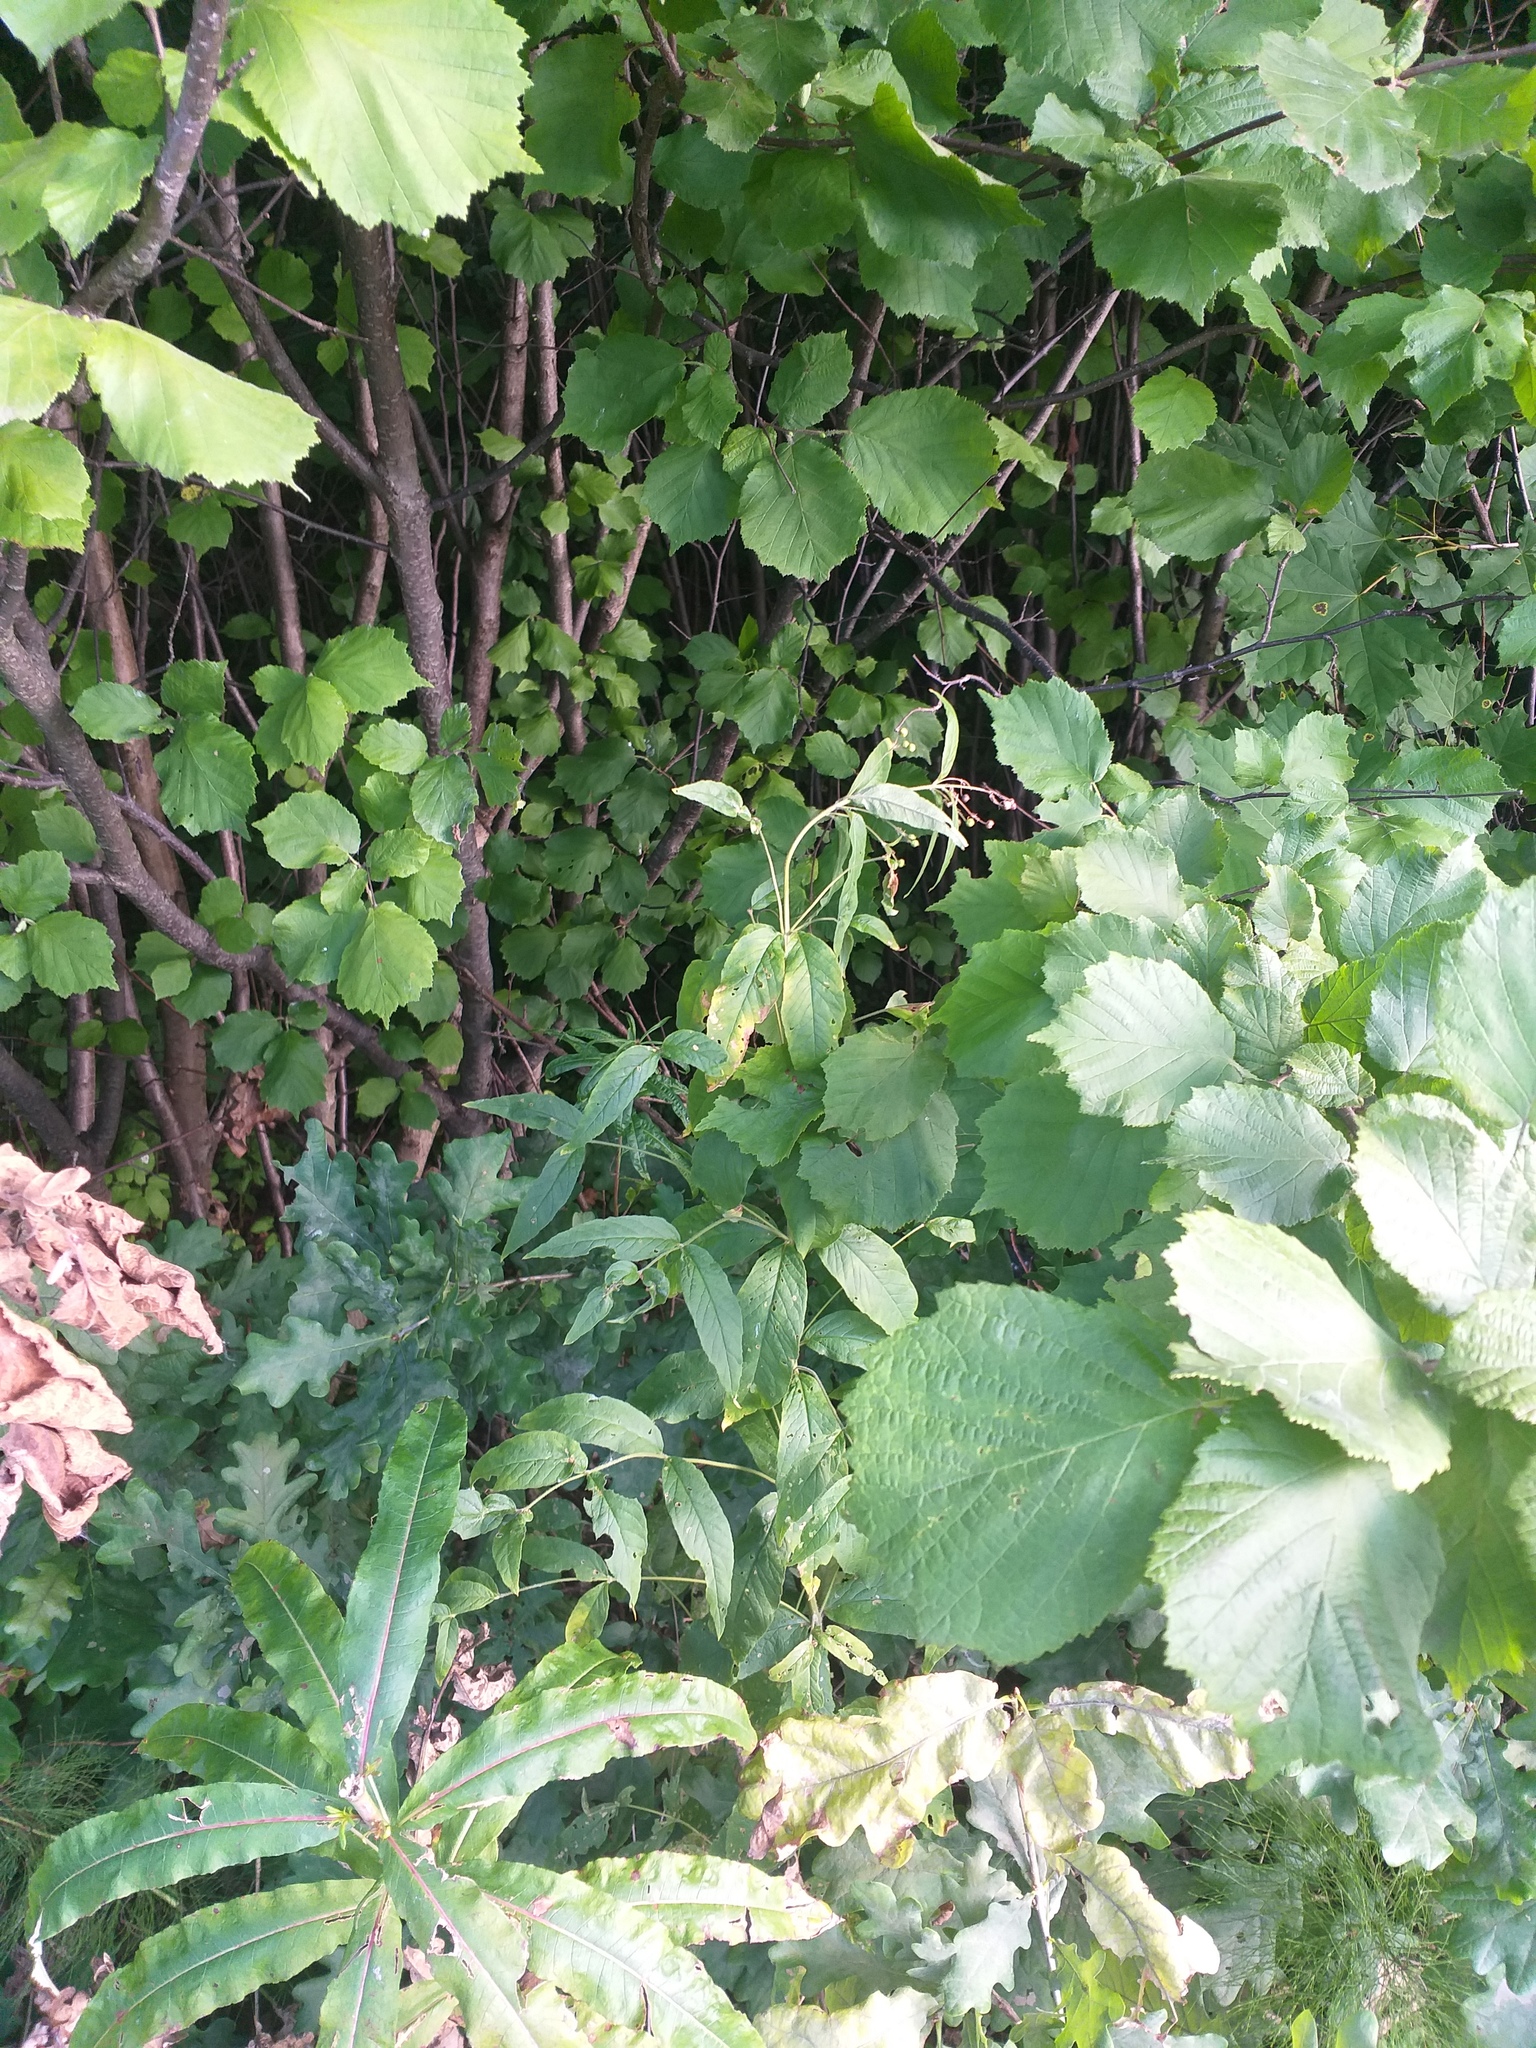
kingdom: Plantae
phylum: Tracheophyta
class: Magnoliopsida
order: Ericales
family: Primulaceae
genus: Lysimachia
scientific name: Lysimachia vulgaris
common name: Yellow loosestrife
